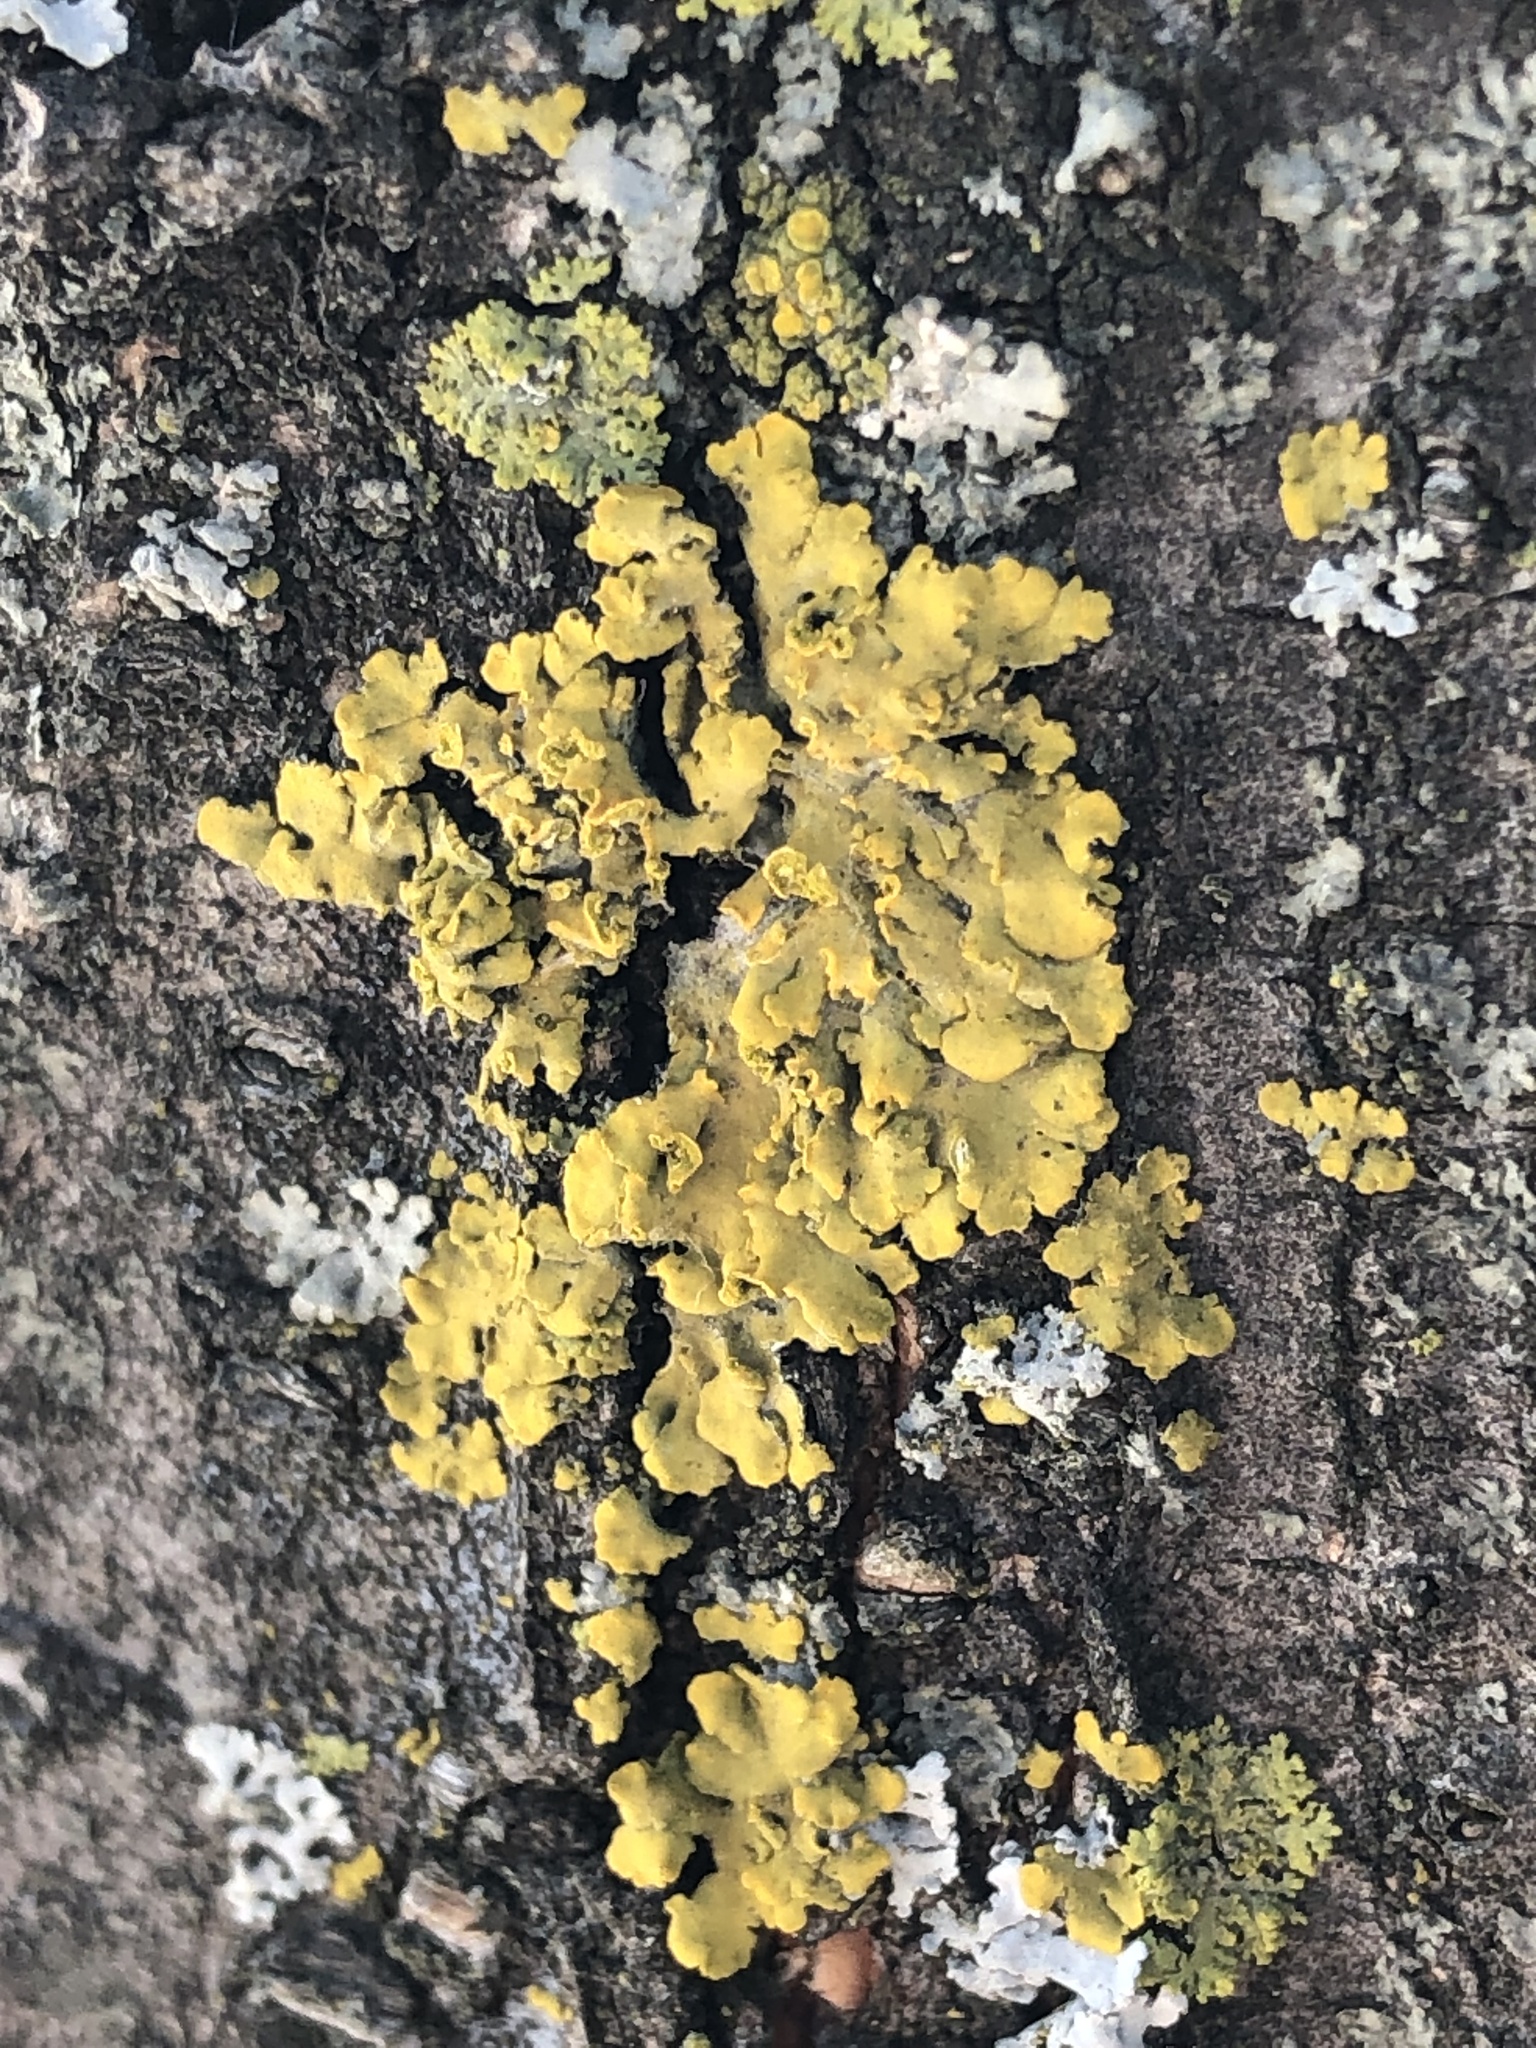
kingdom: Fungi
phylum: Ascomycota
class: Lecanoromycetes
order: Teloschistales
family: Teloschistaceae
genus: Oxneria
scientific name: Oxneria fallax
